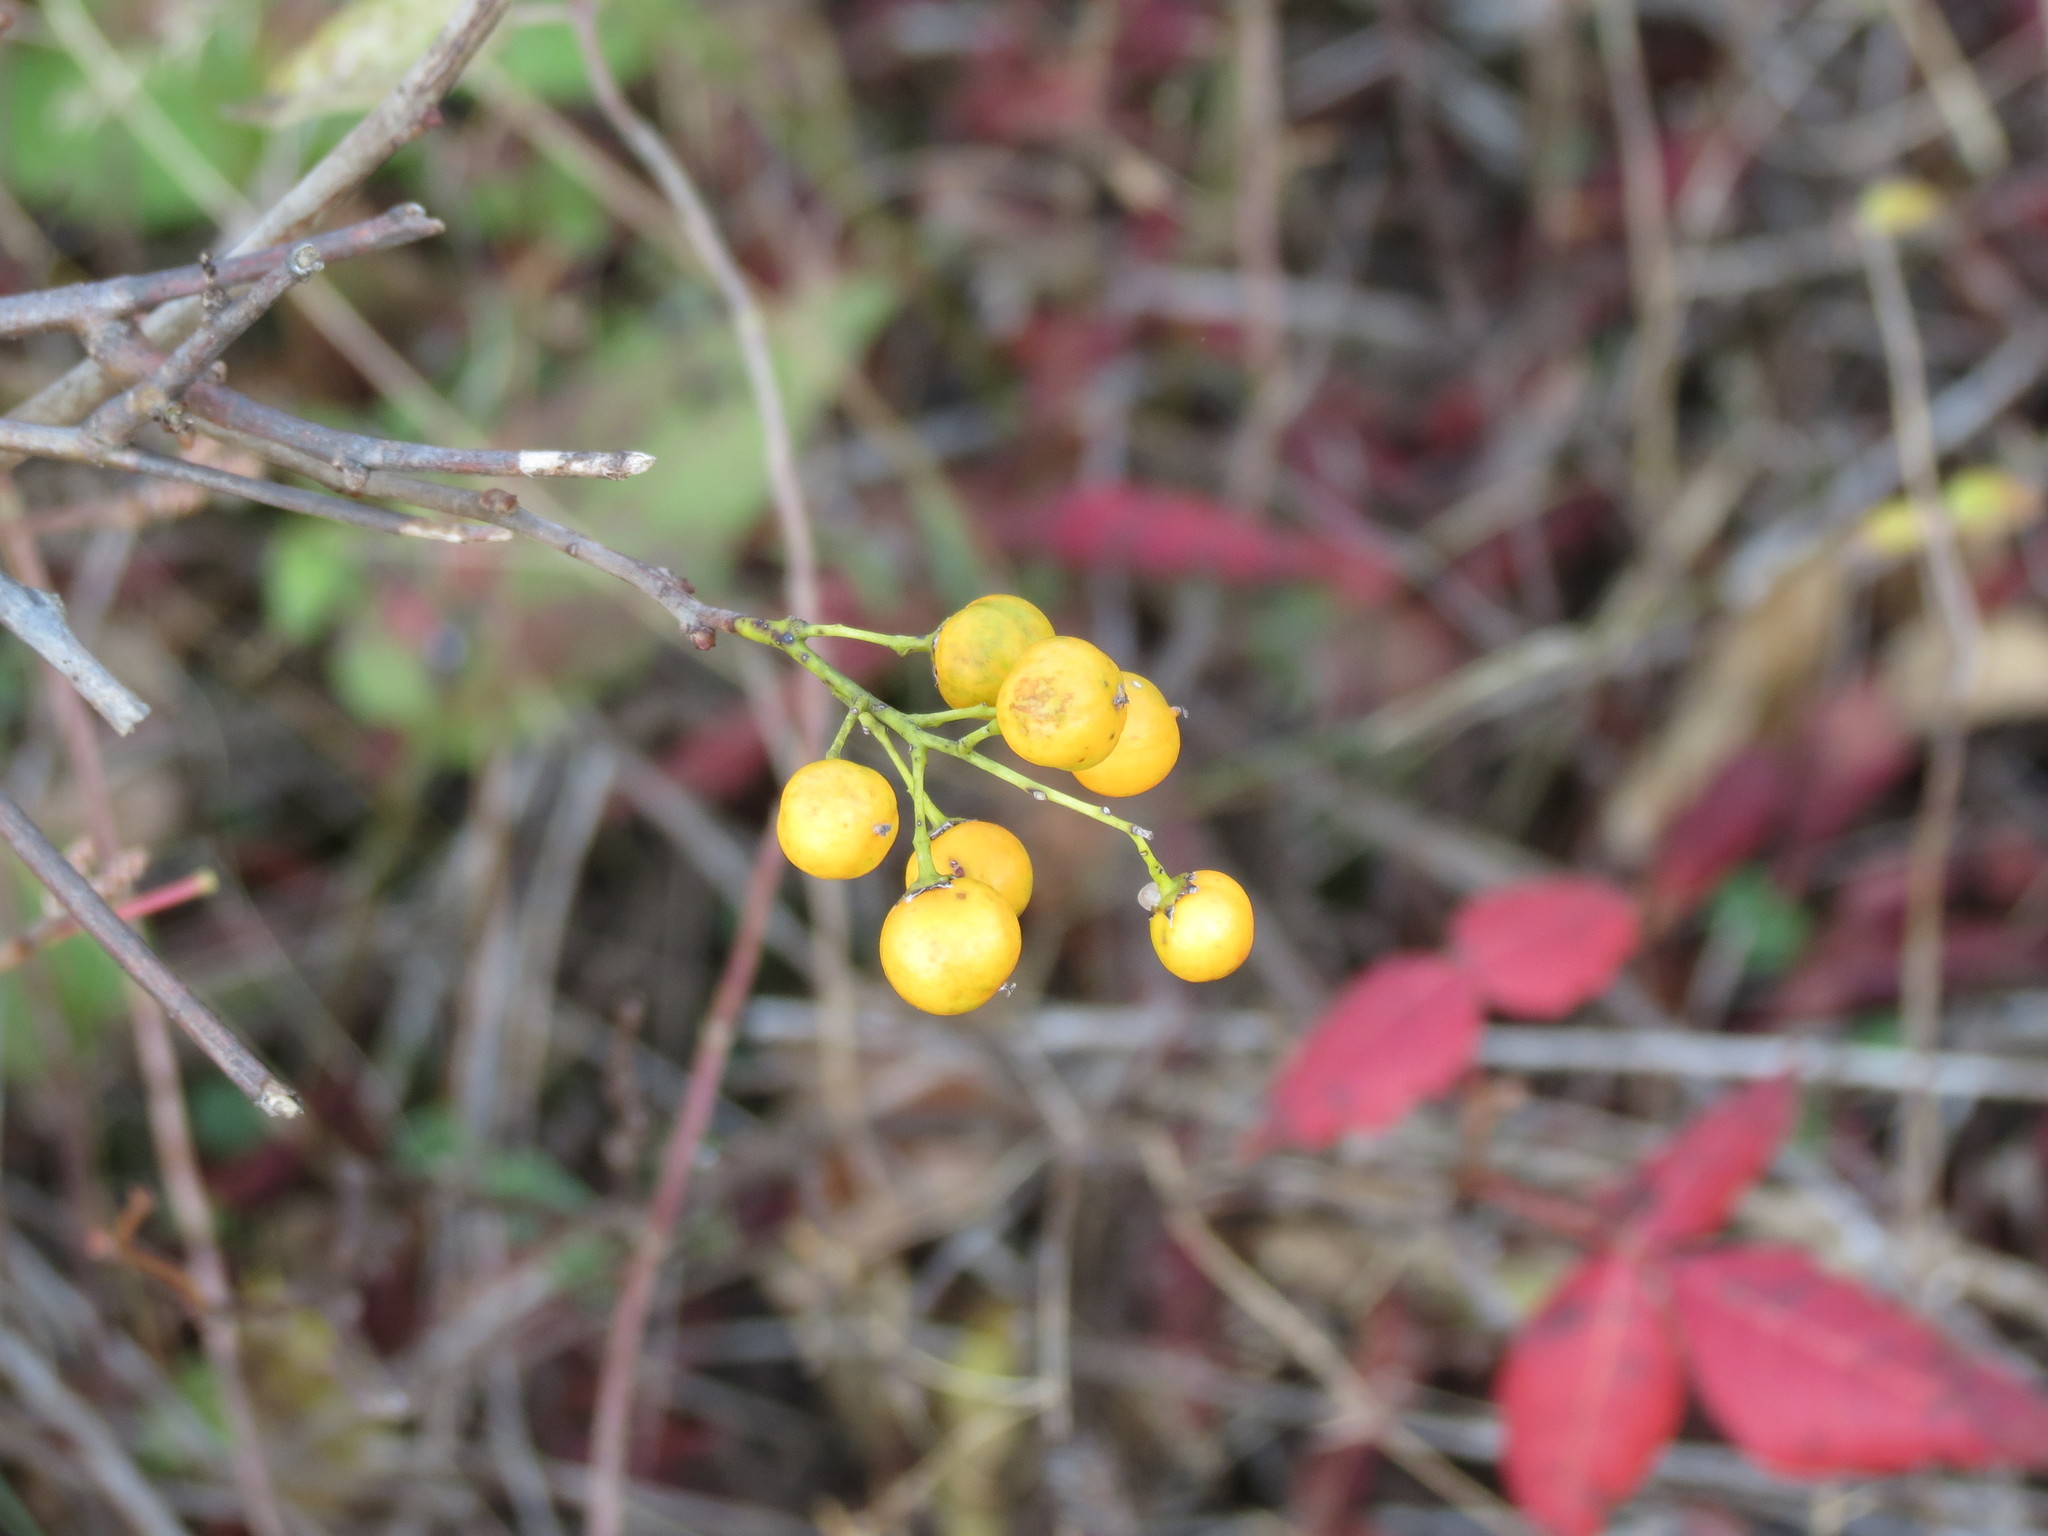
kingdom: Plantae
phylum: Tracheophyta
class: Magnoliopsida
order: Celastrales
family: Celastraceae
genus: Celastrus
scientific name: Celastrus scandens
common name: American bittersweet
